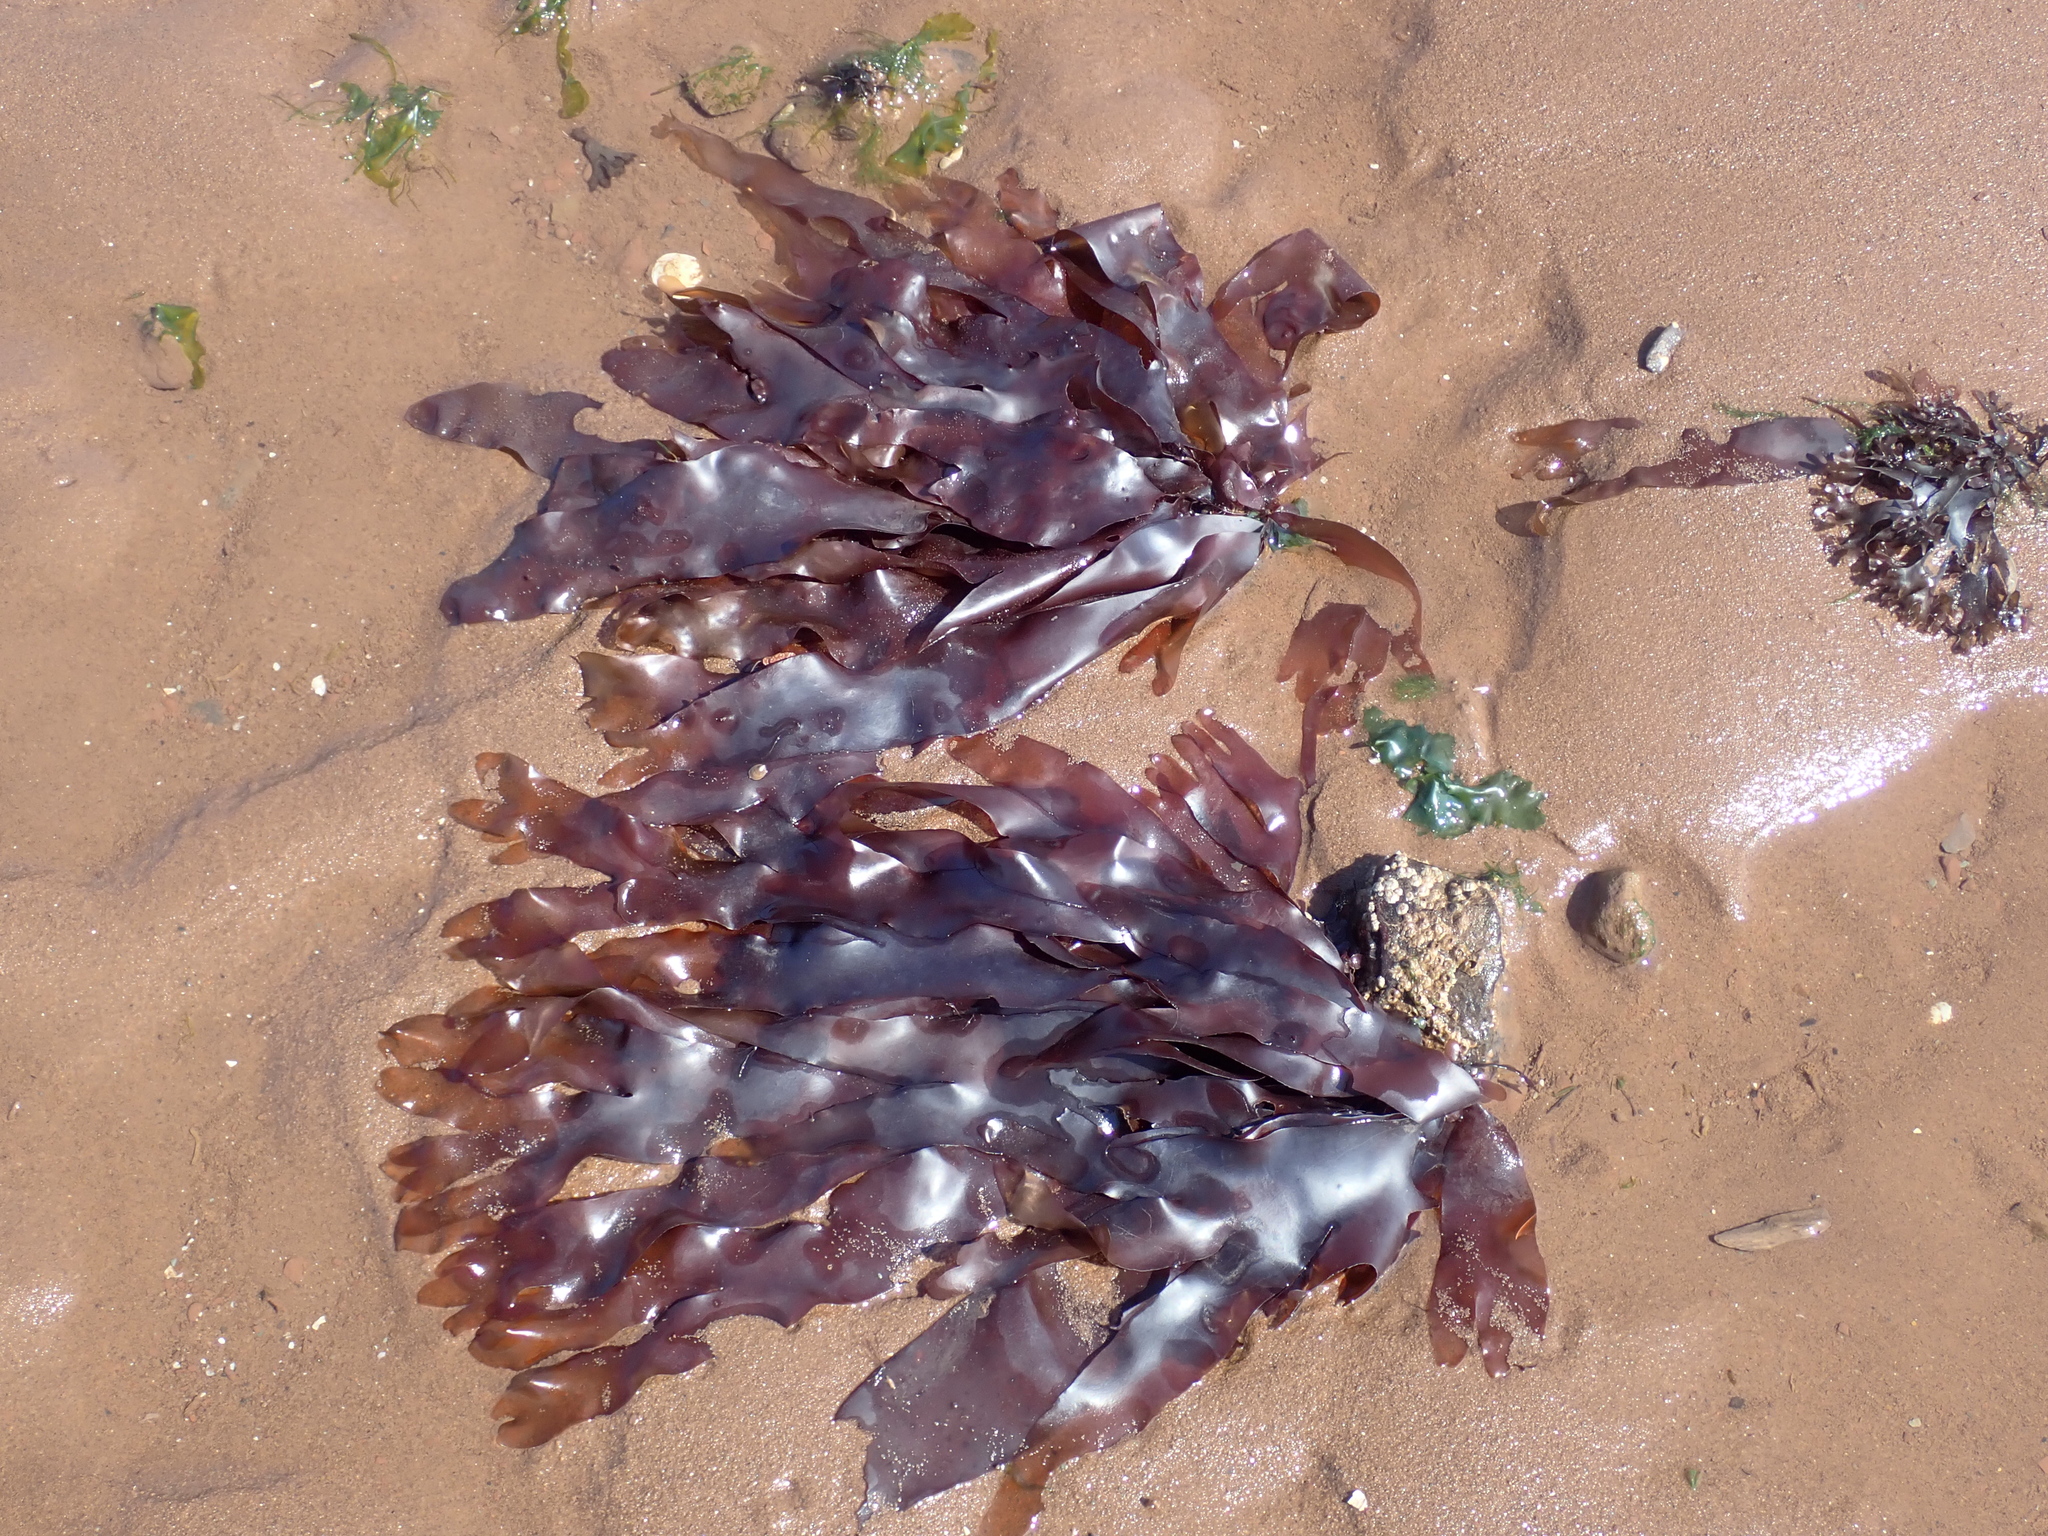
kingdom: Plantae
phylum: Rhodophyta
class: Florideophyceae
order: Palmariales
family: Palmariaceae
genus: Palmaria
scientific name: Palmaria palmata
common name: Dulse
